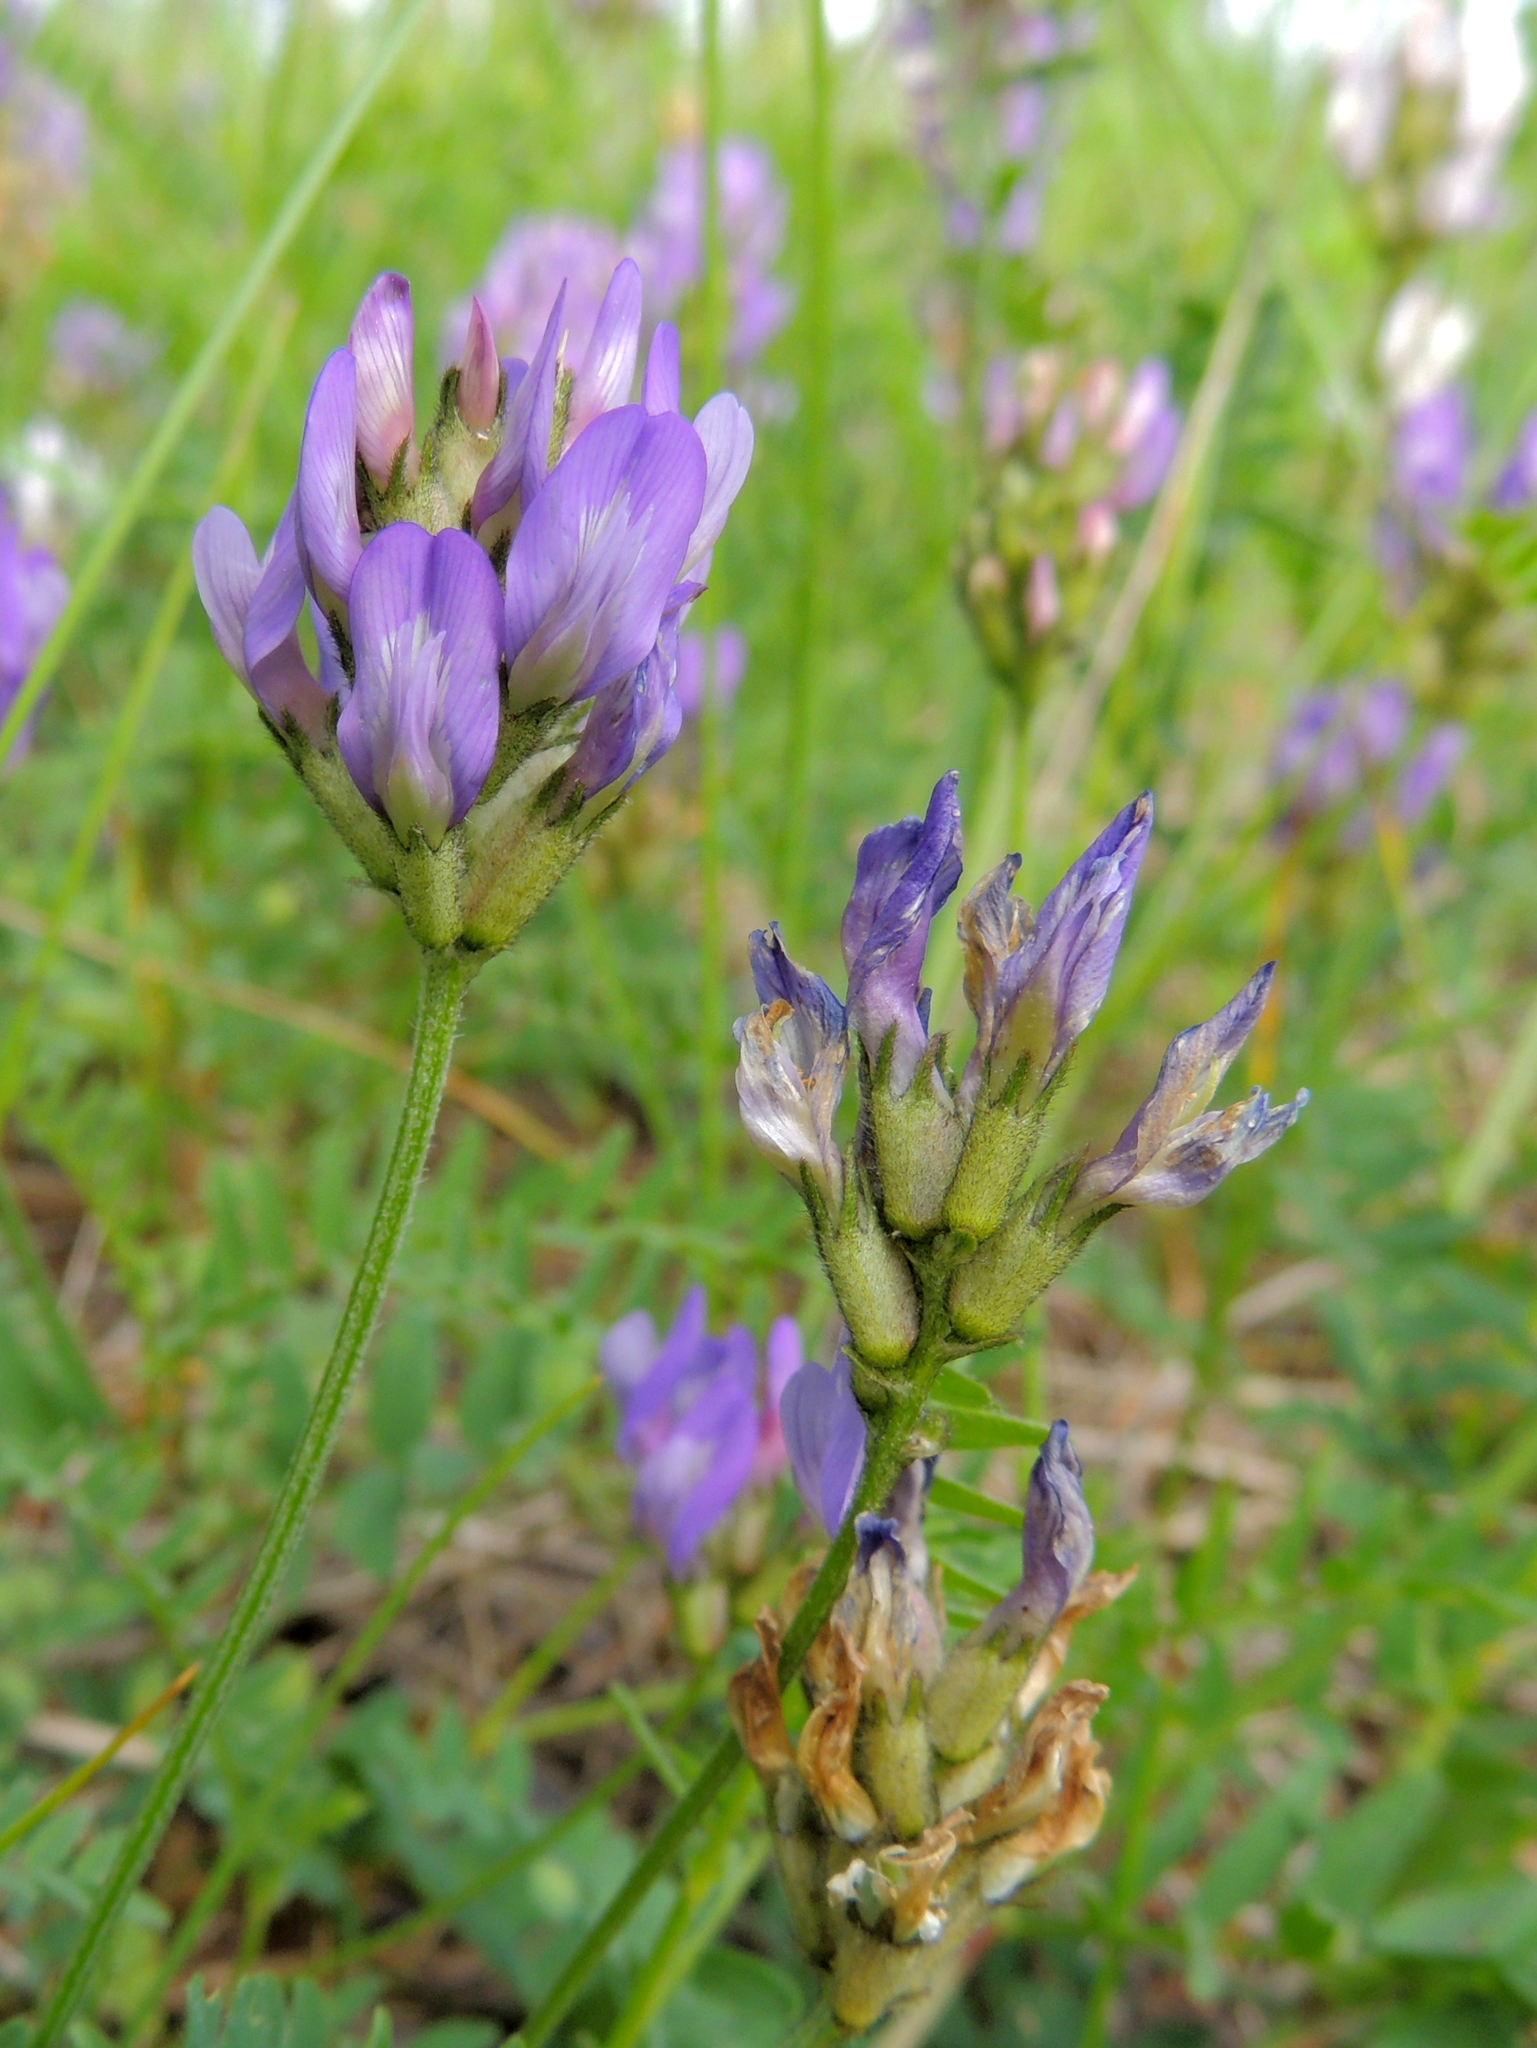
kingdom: Plantae
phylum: Tracheophyta
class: Magnoliopsida
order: Fabales
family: Fabaceae
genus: Astragalus
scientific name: Astragalus danicus
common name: Purple milk-vetch
